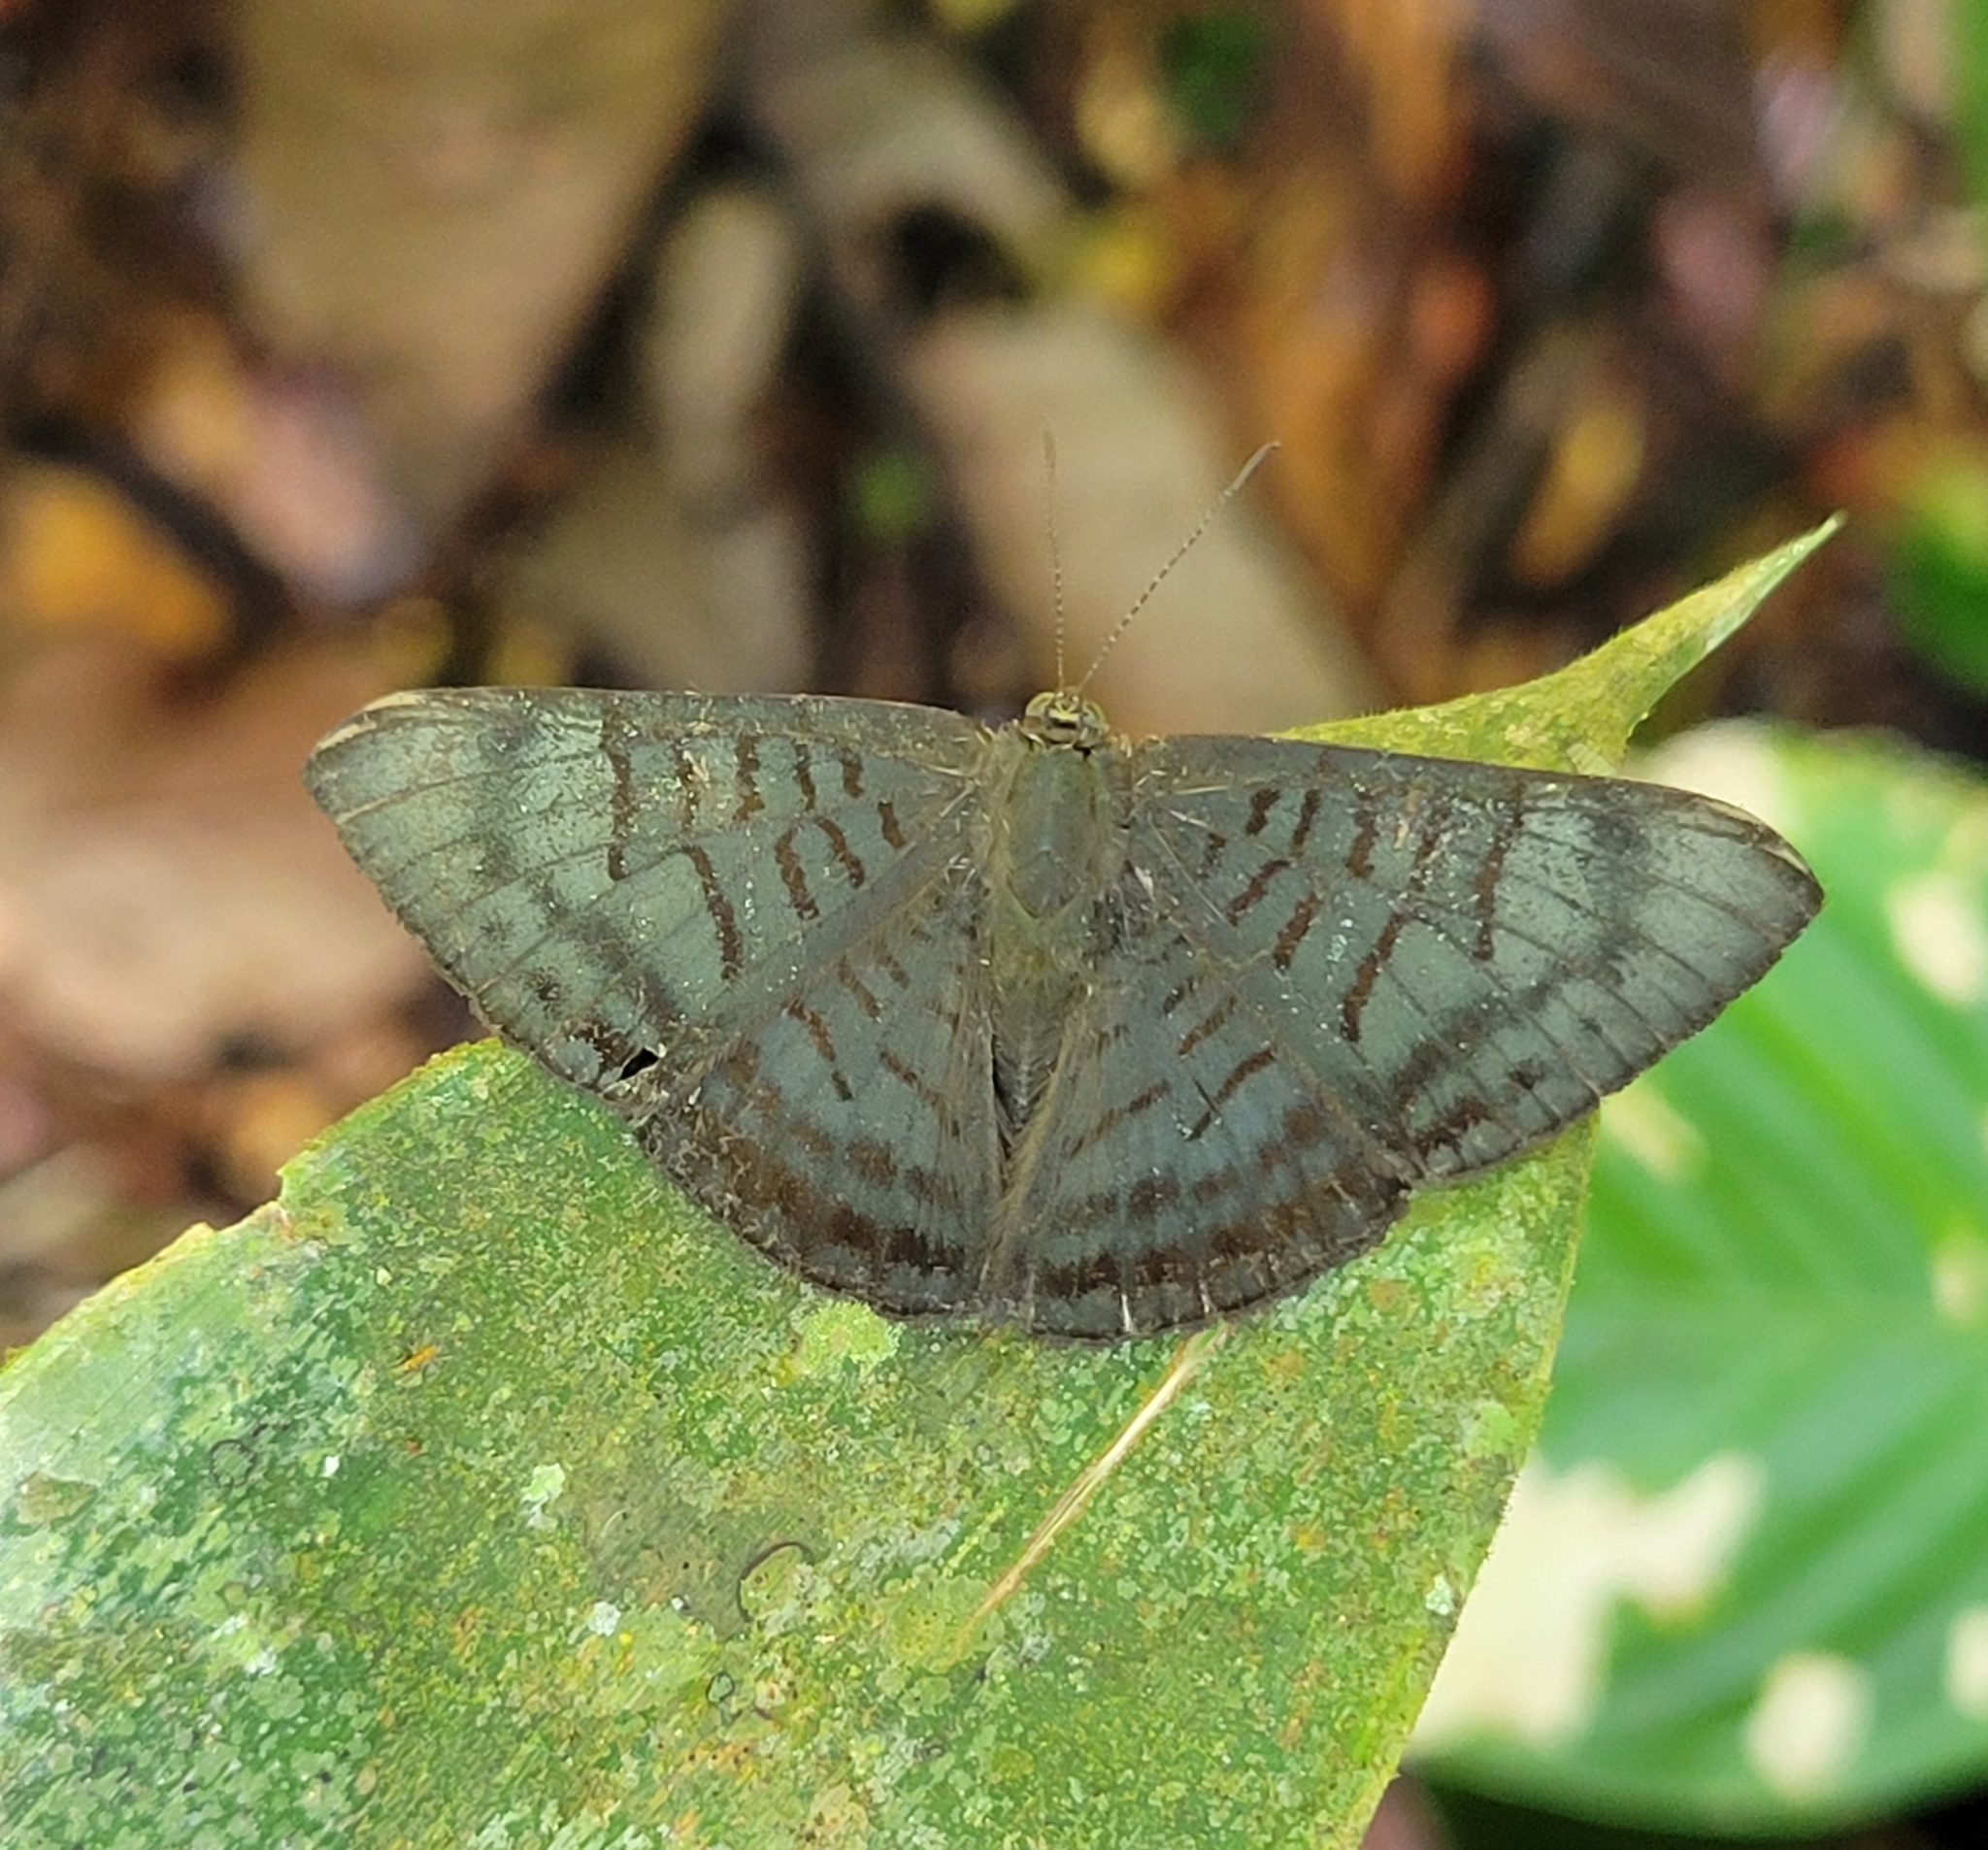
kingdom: Animalia
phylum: Arthropoda
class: Insecta
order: Lepidoptera
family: Lycaenidae
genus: Emesis
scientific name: Emesis lucinda
